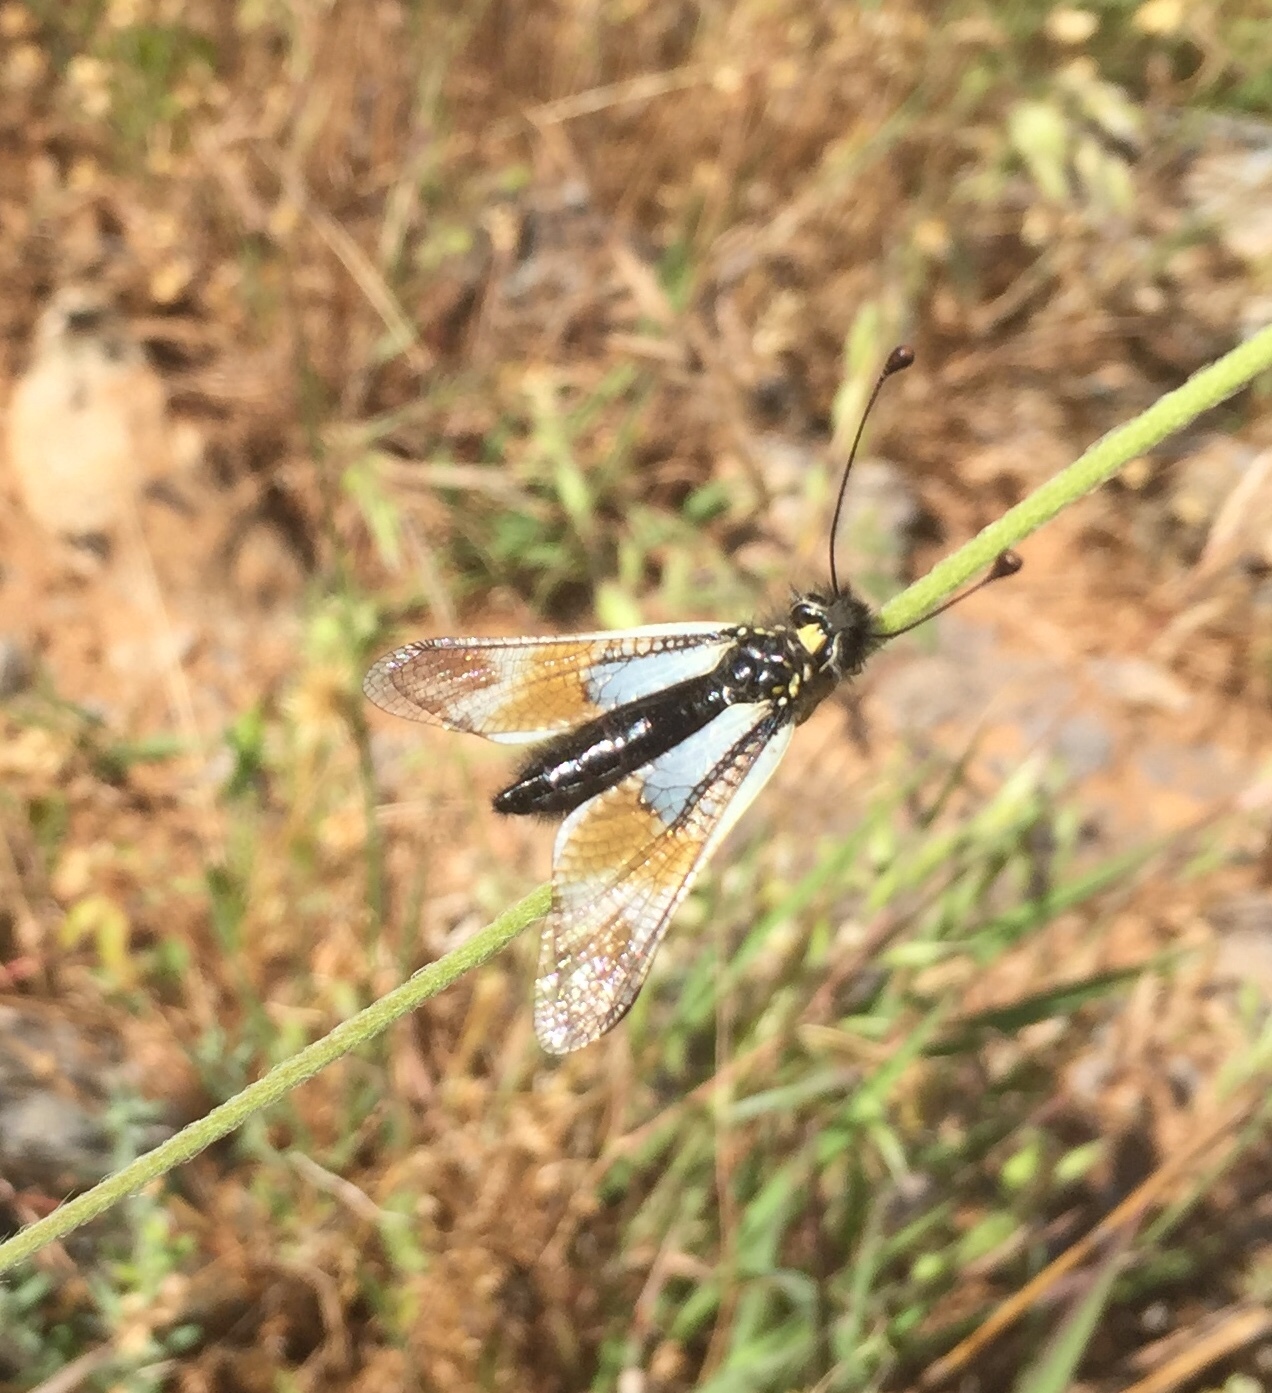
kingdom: Animalia
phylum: Arthropoda
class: Insecta
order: Neuroptera
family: Ascalaphidae
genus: Libelloides
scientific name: Libelloides lacteus
